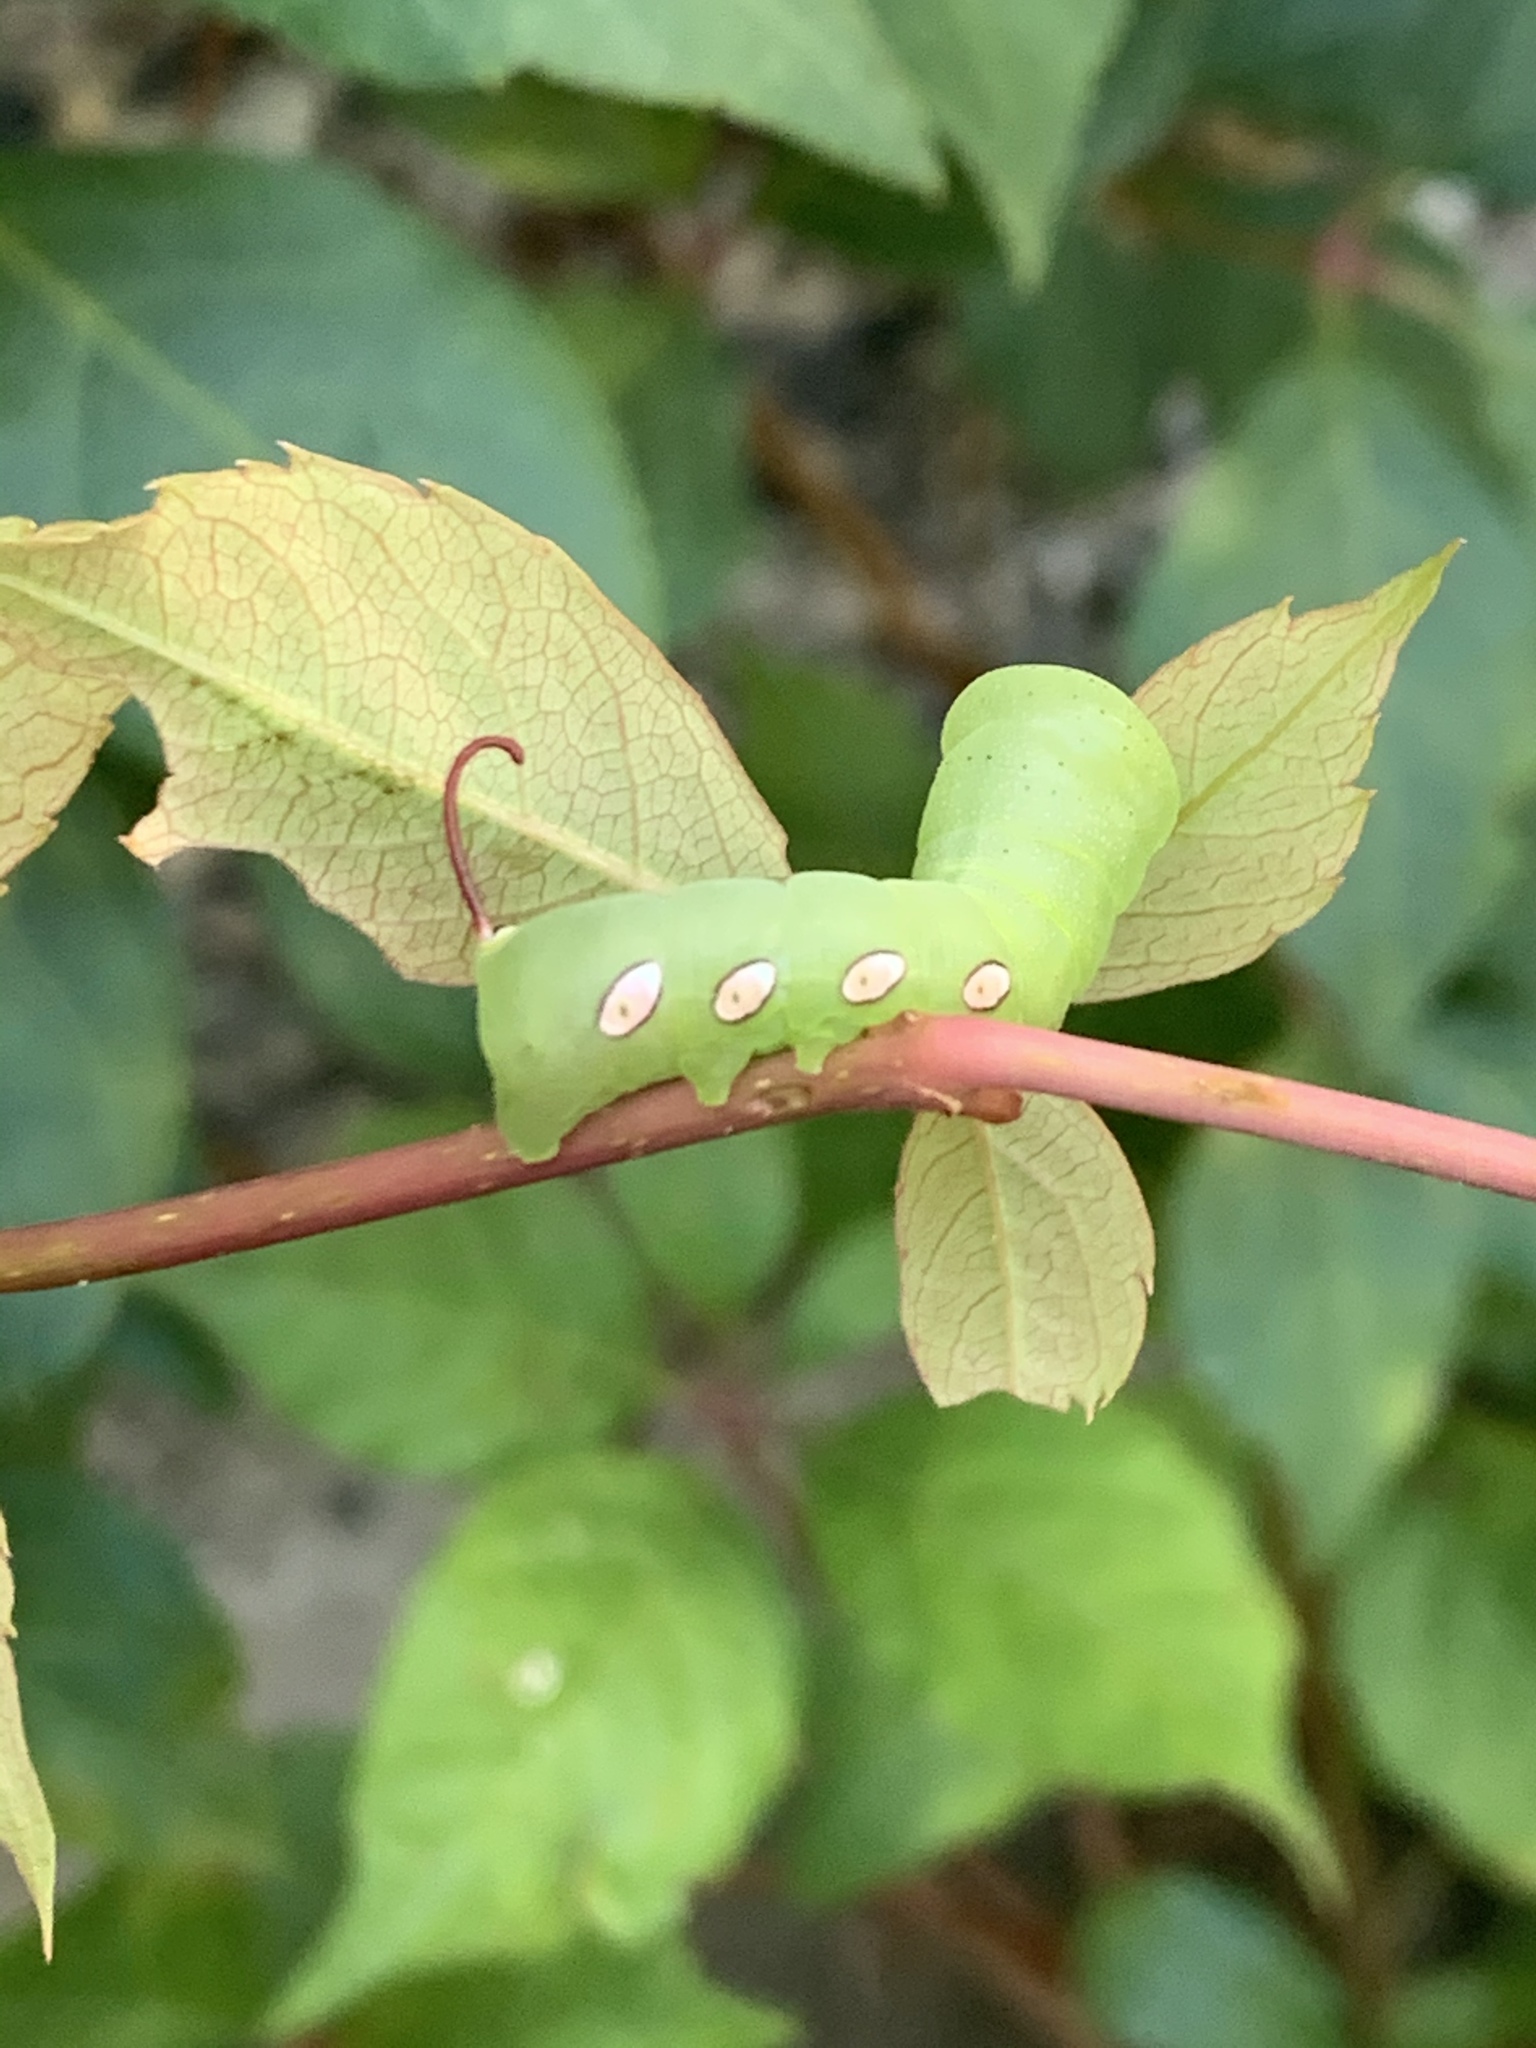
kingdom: Animalia
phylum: Arthropoda
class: Insecta
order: Lepidoptera
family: Sphingidae
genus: Eumorpha
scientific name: Eumorpha pandorus
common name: Pandora sphinx
